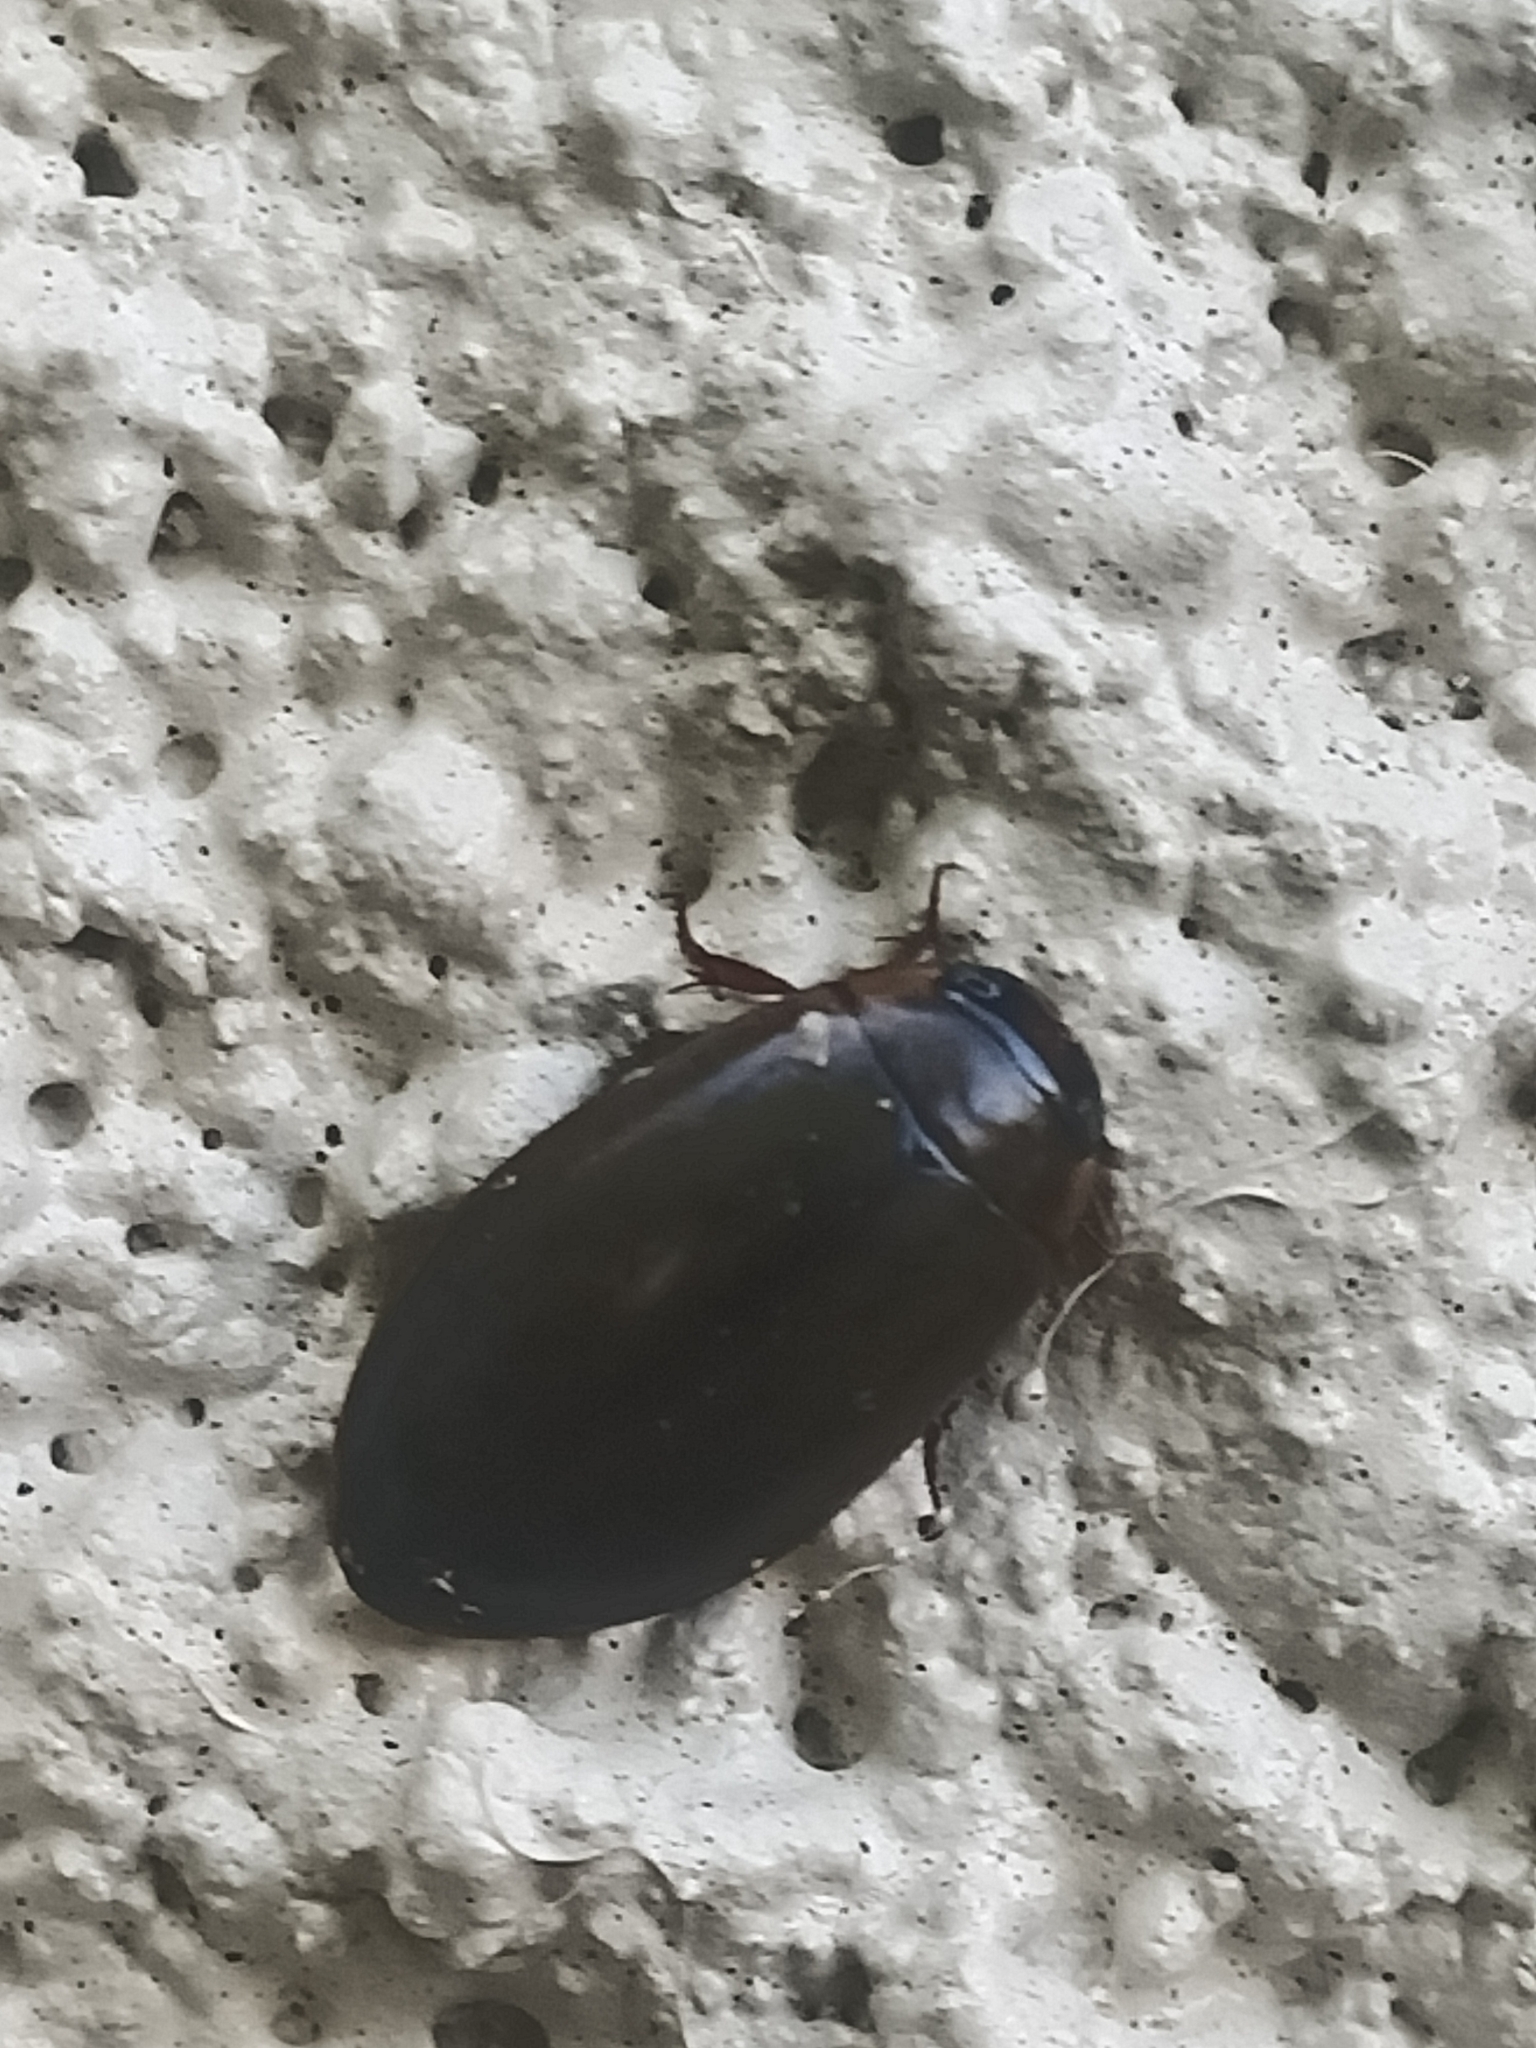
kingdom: Animalia
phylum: Arthropoda
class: Insecta
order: Coleoptera
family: Dytiscidae
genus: Rhantus
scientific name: Rhantus suturalis
